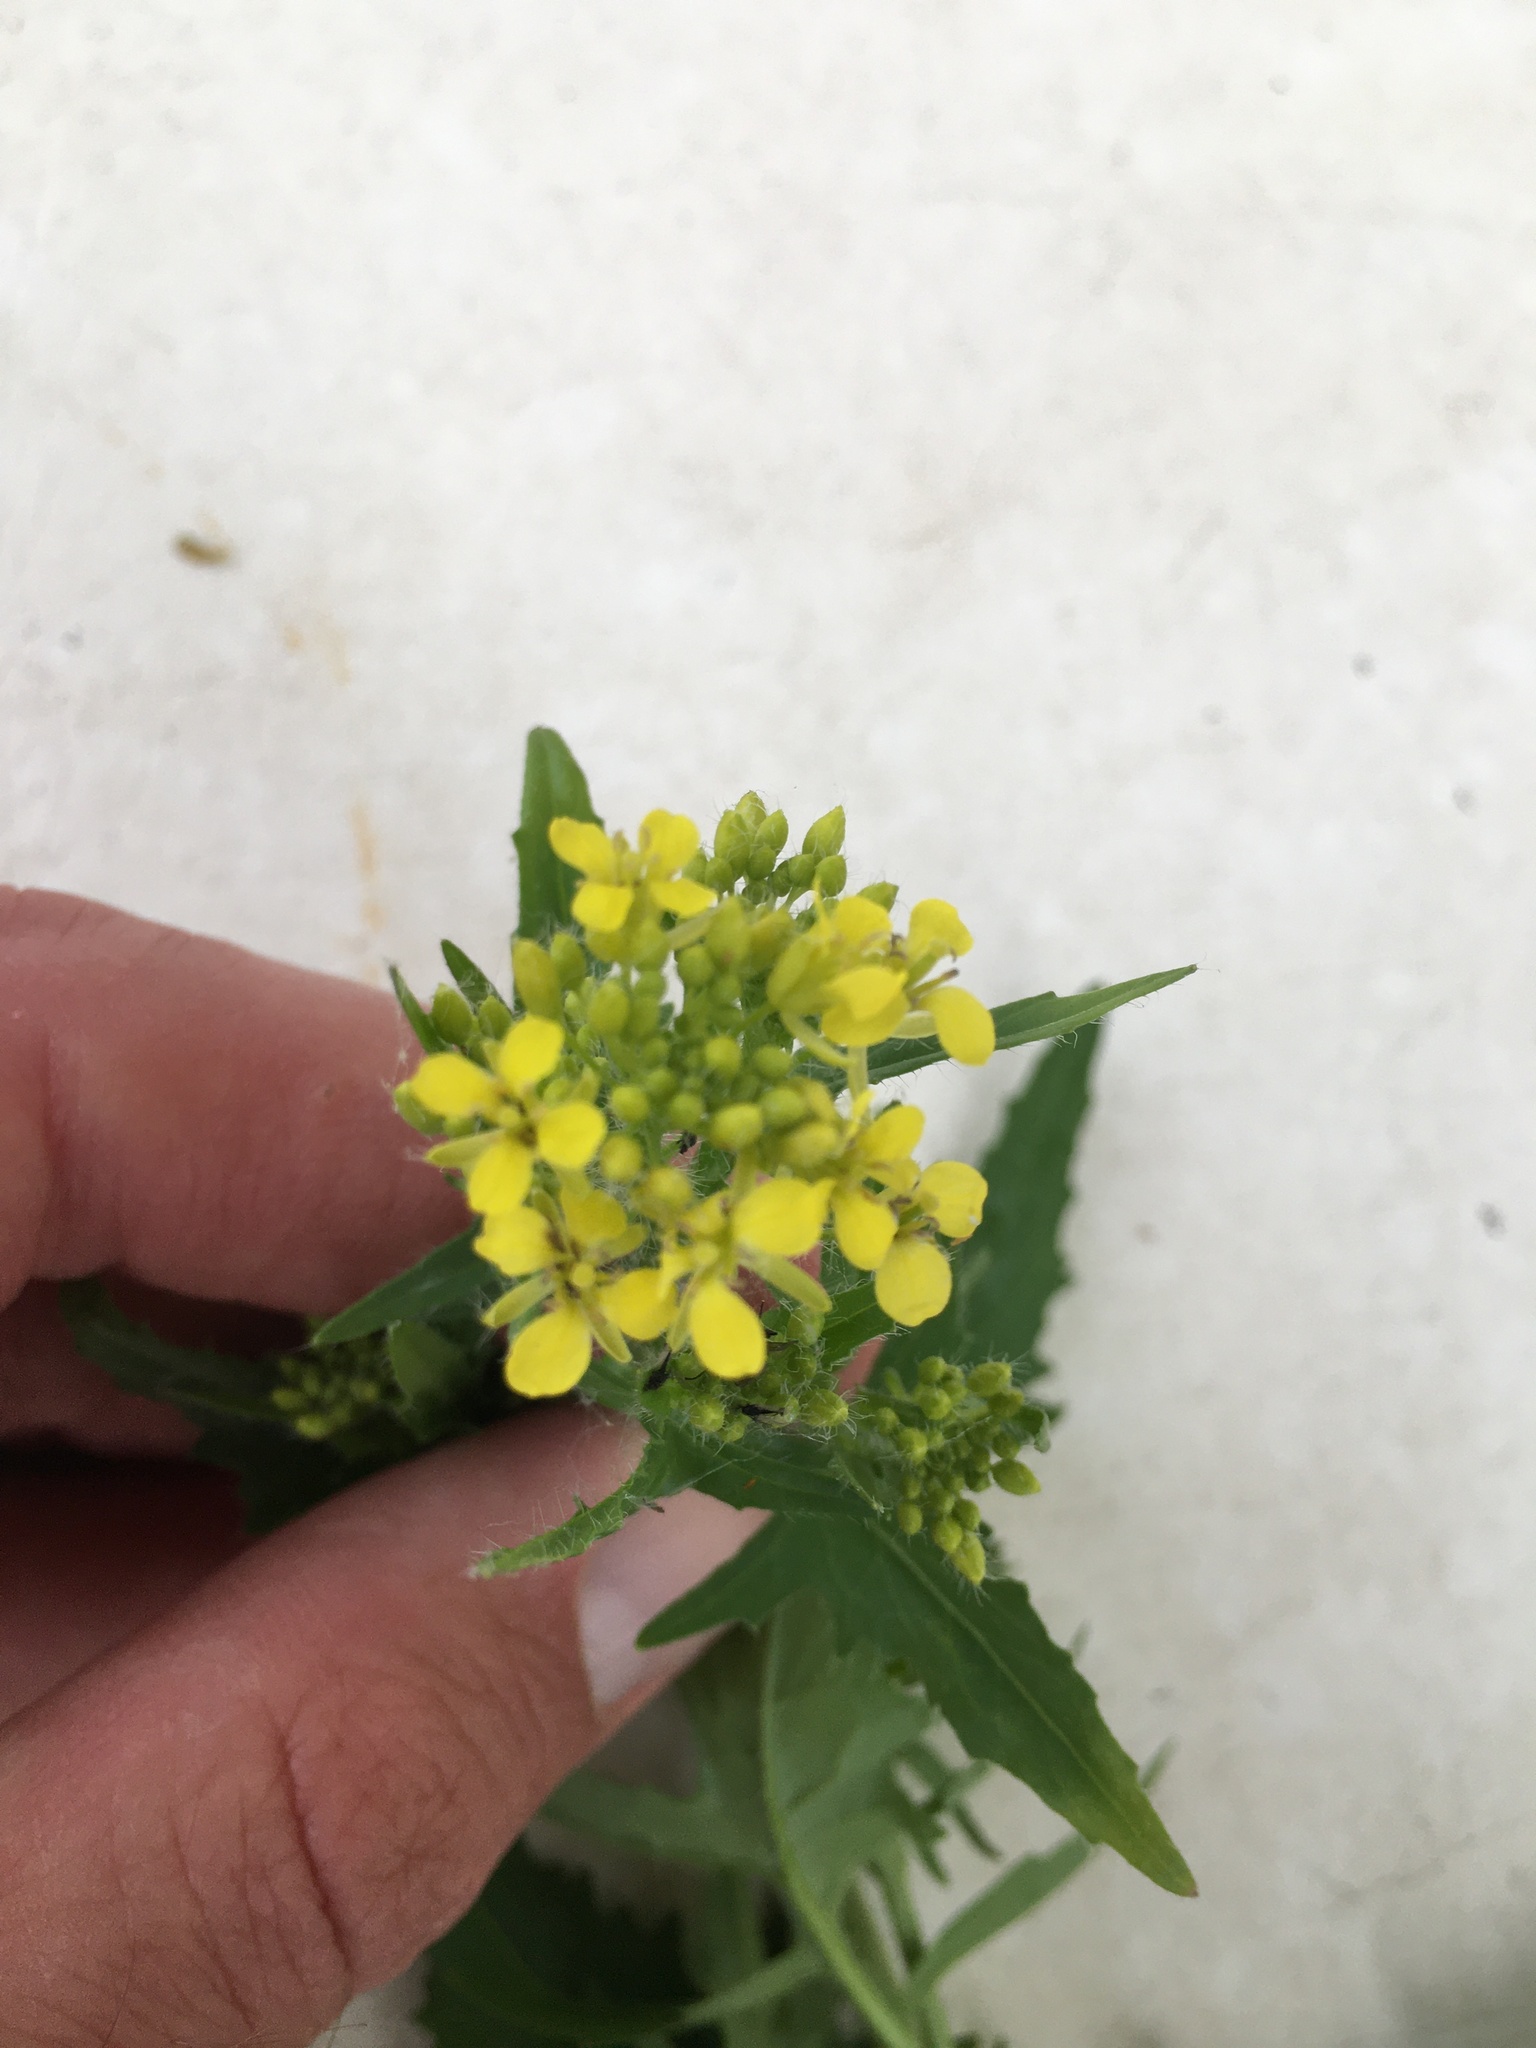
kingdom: Plantae
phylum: Tracheophyta
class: Magnoliopsida
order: Brassicales
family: Brassicaceae
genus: Sisymbrium
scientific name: Sisymbrium loeselii
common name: False london-rocket
